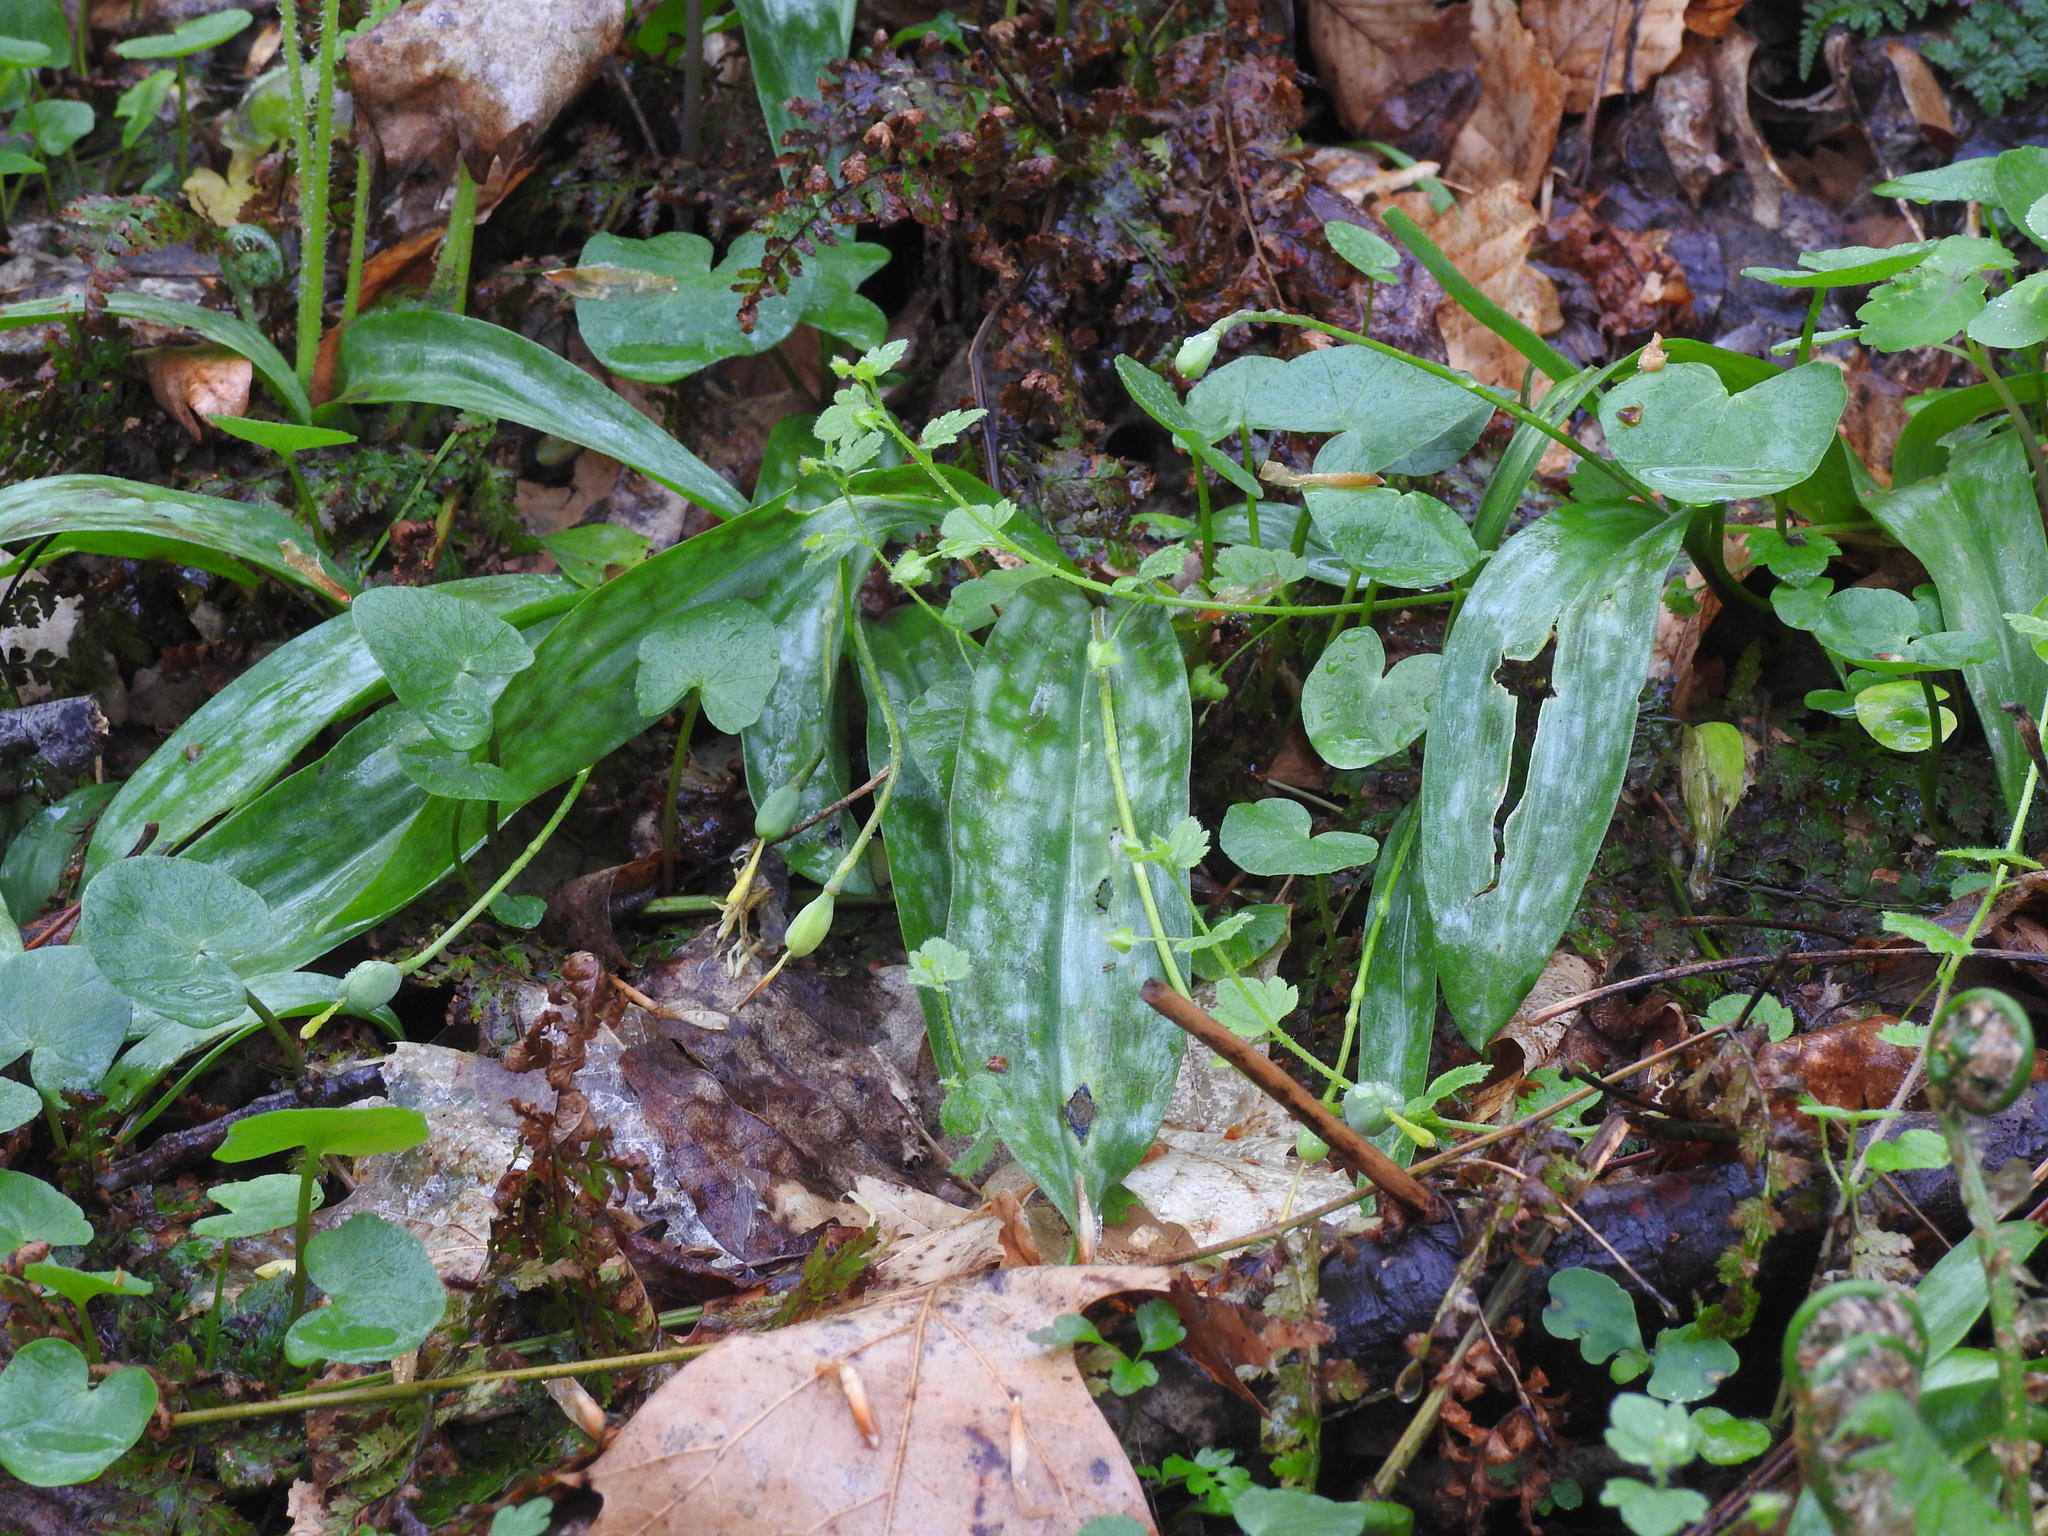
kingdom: Plantae
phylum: Tracheophyta
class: Liliopsida
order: Liliales
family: Liliaceae
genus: Erythronium
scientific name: Erythronium americanum
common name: Yellow adder's-tongue
